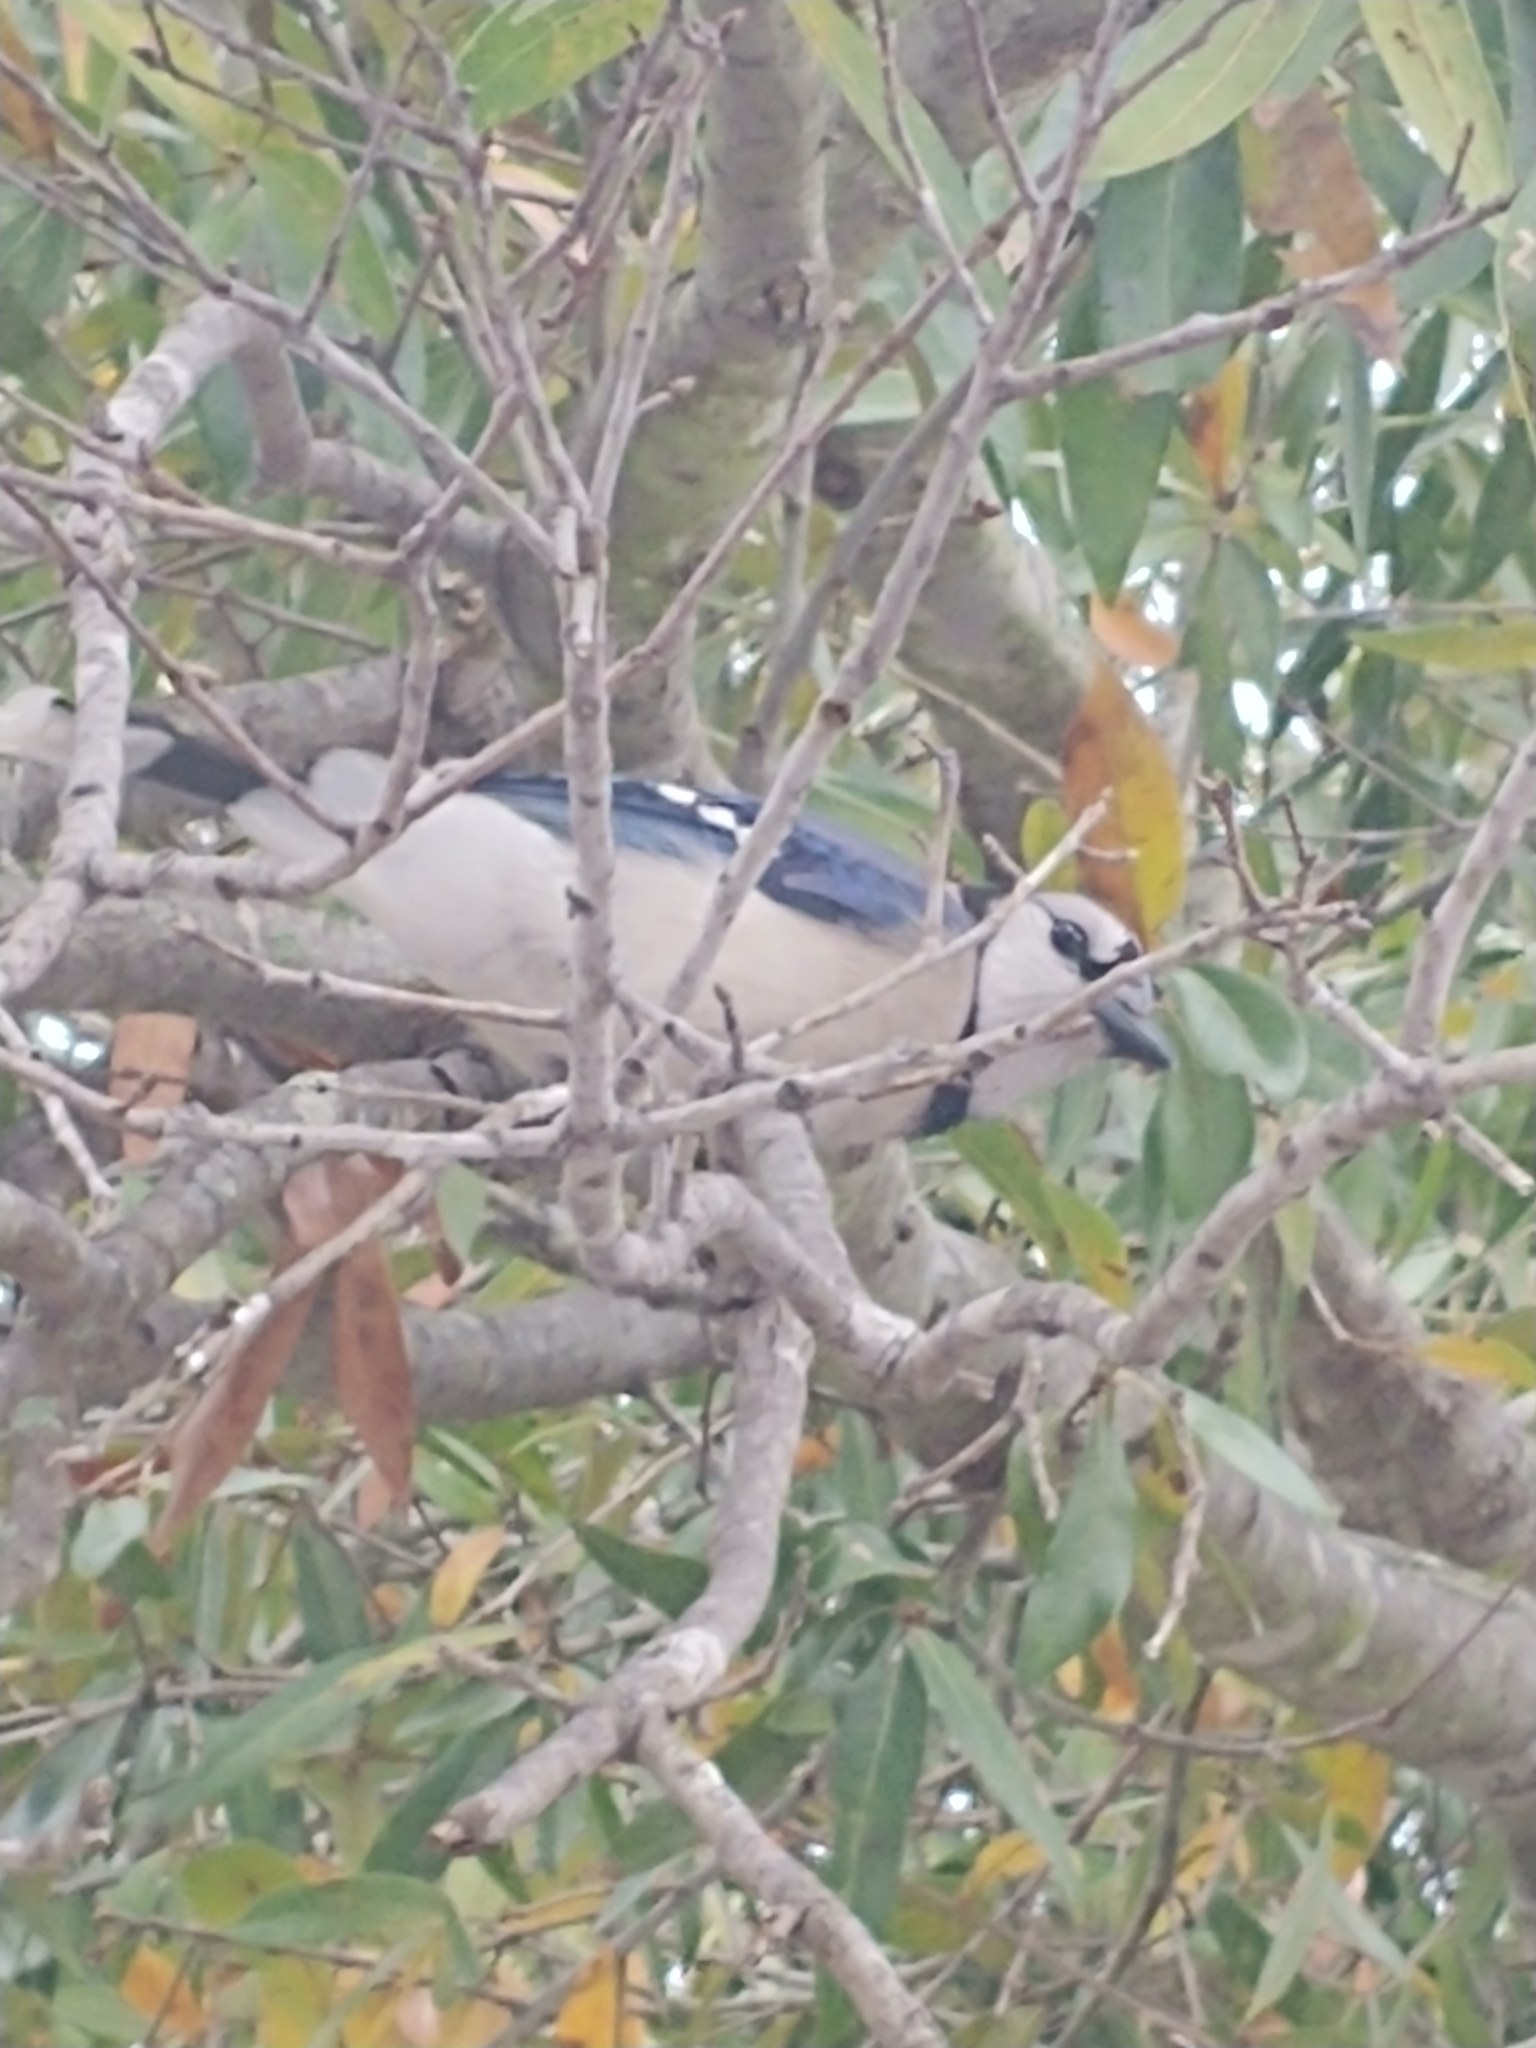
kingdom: Animalia
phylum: Chordata
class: Aves
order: Passeriformes
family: Corvidae
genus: Cyanocitta
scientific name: Cyanocitta cristata
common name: Blue jay
